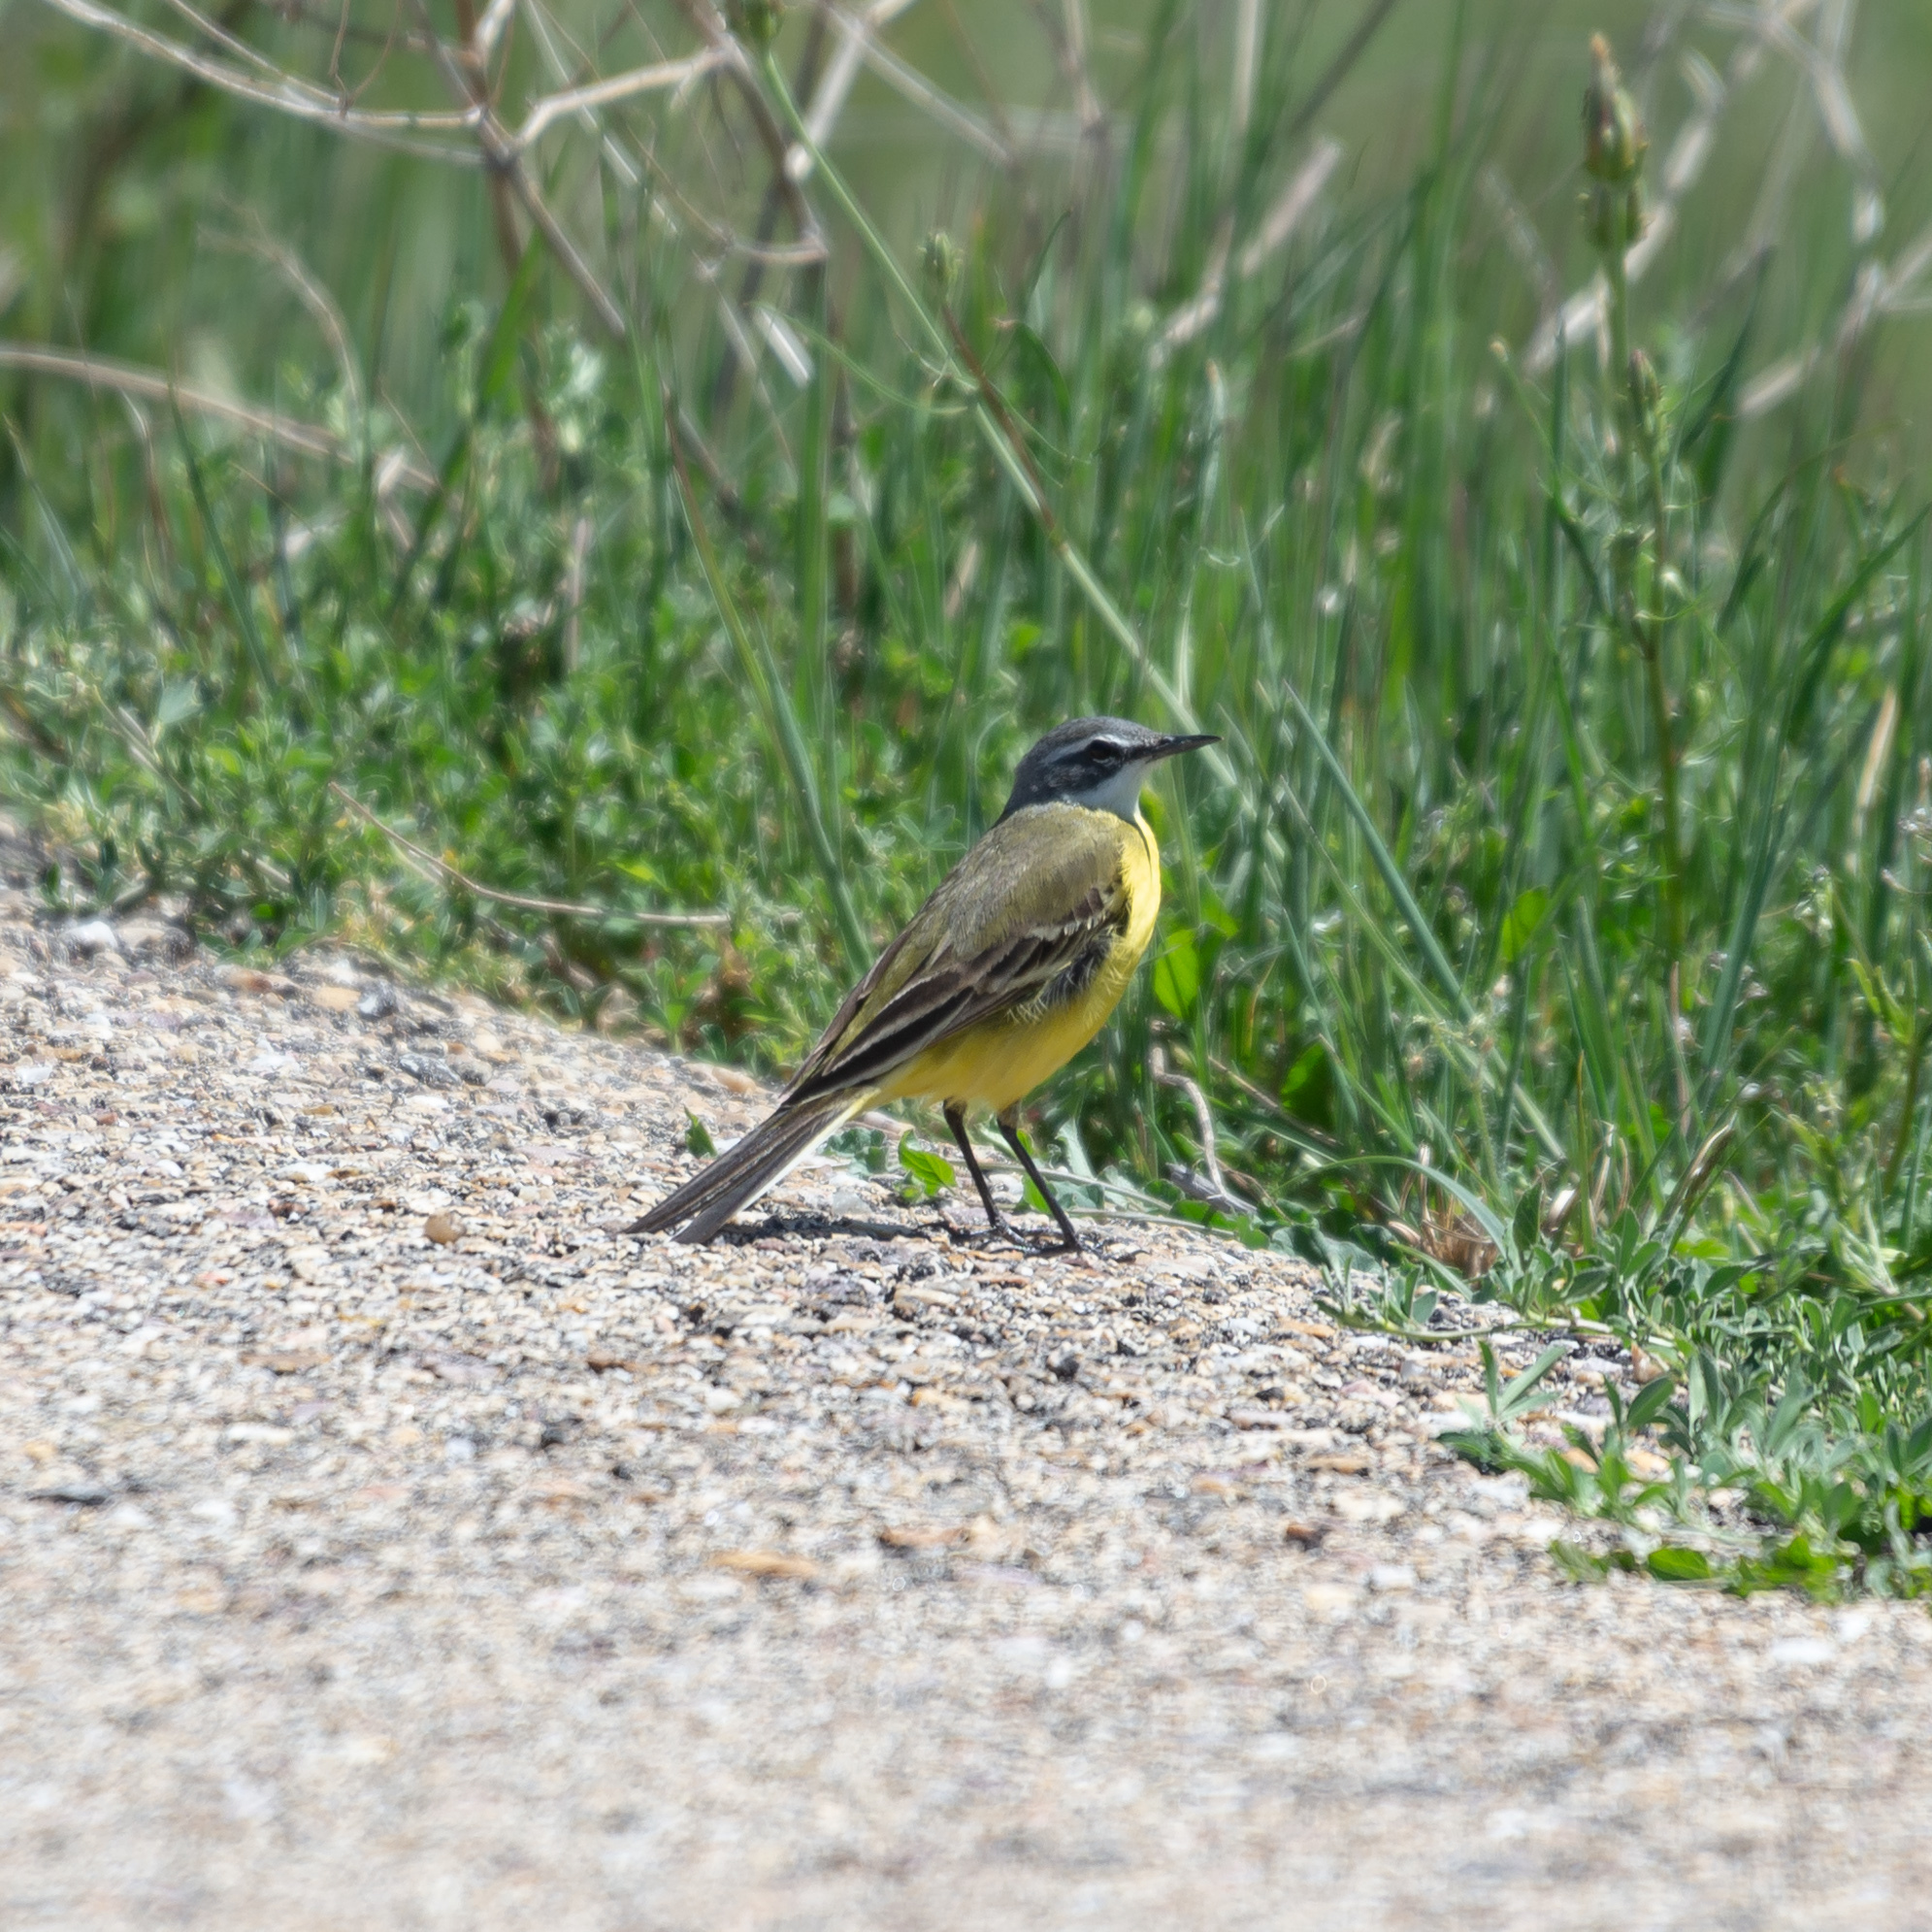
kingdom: Animalia
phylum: Chordata
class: Aves
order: Passeriformes
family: Motacillidae
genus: Motacilla
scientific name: Motacilla flava
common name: Western yellow wagtail
